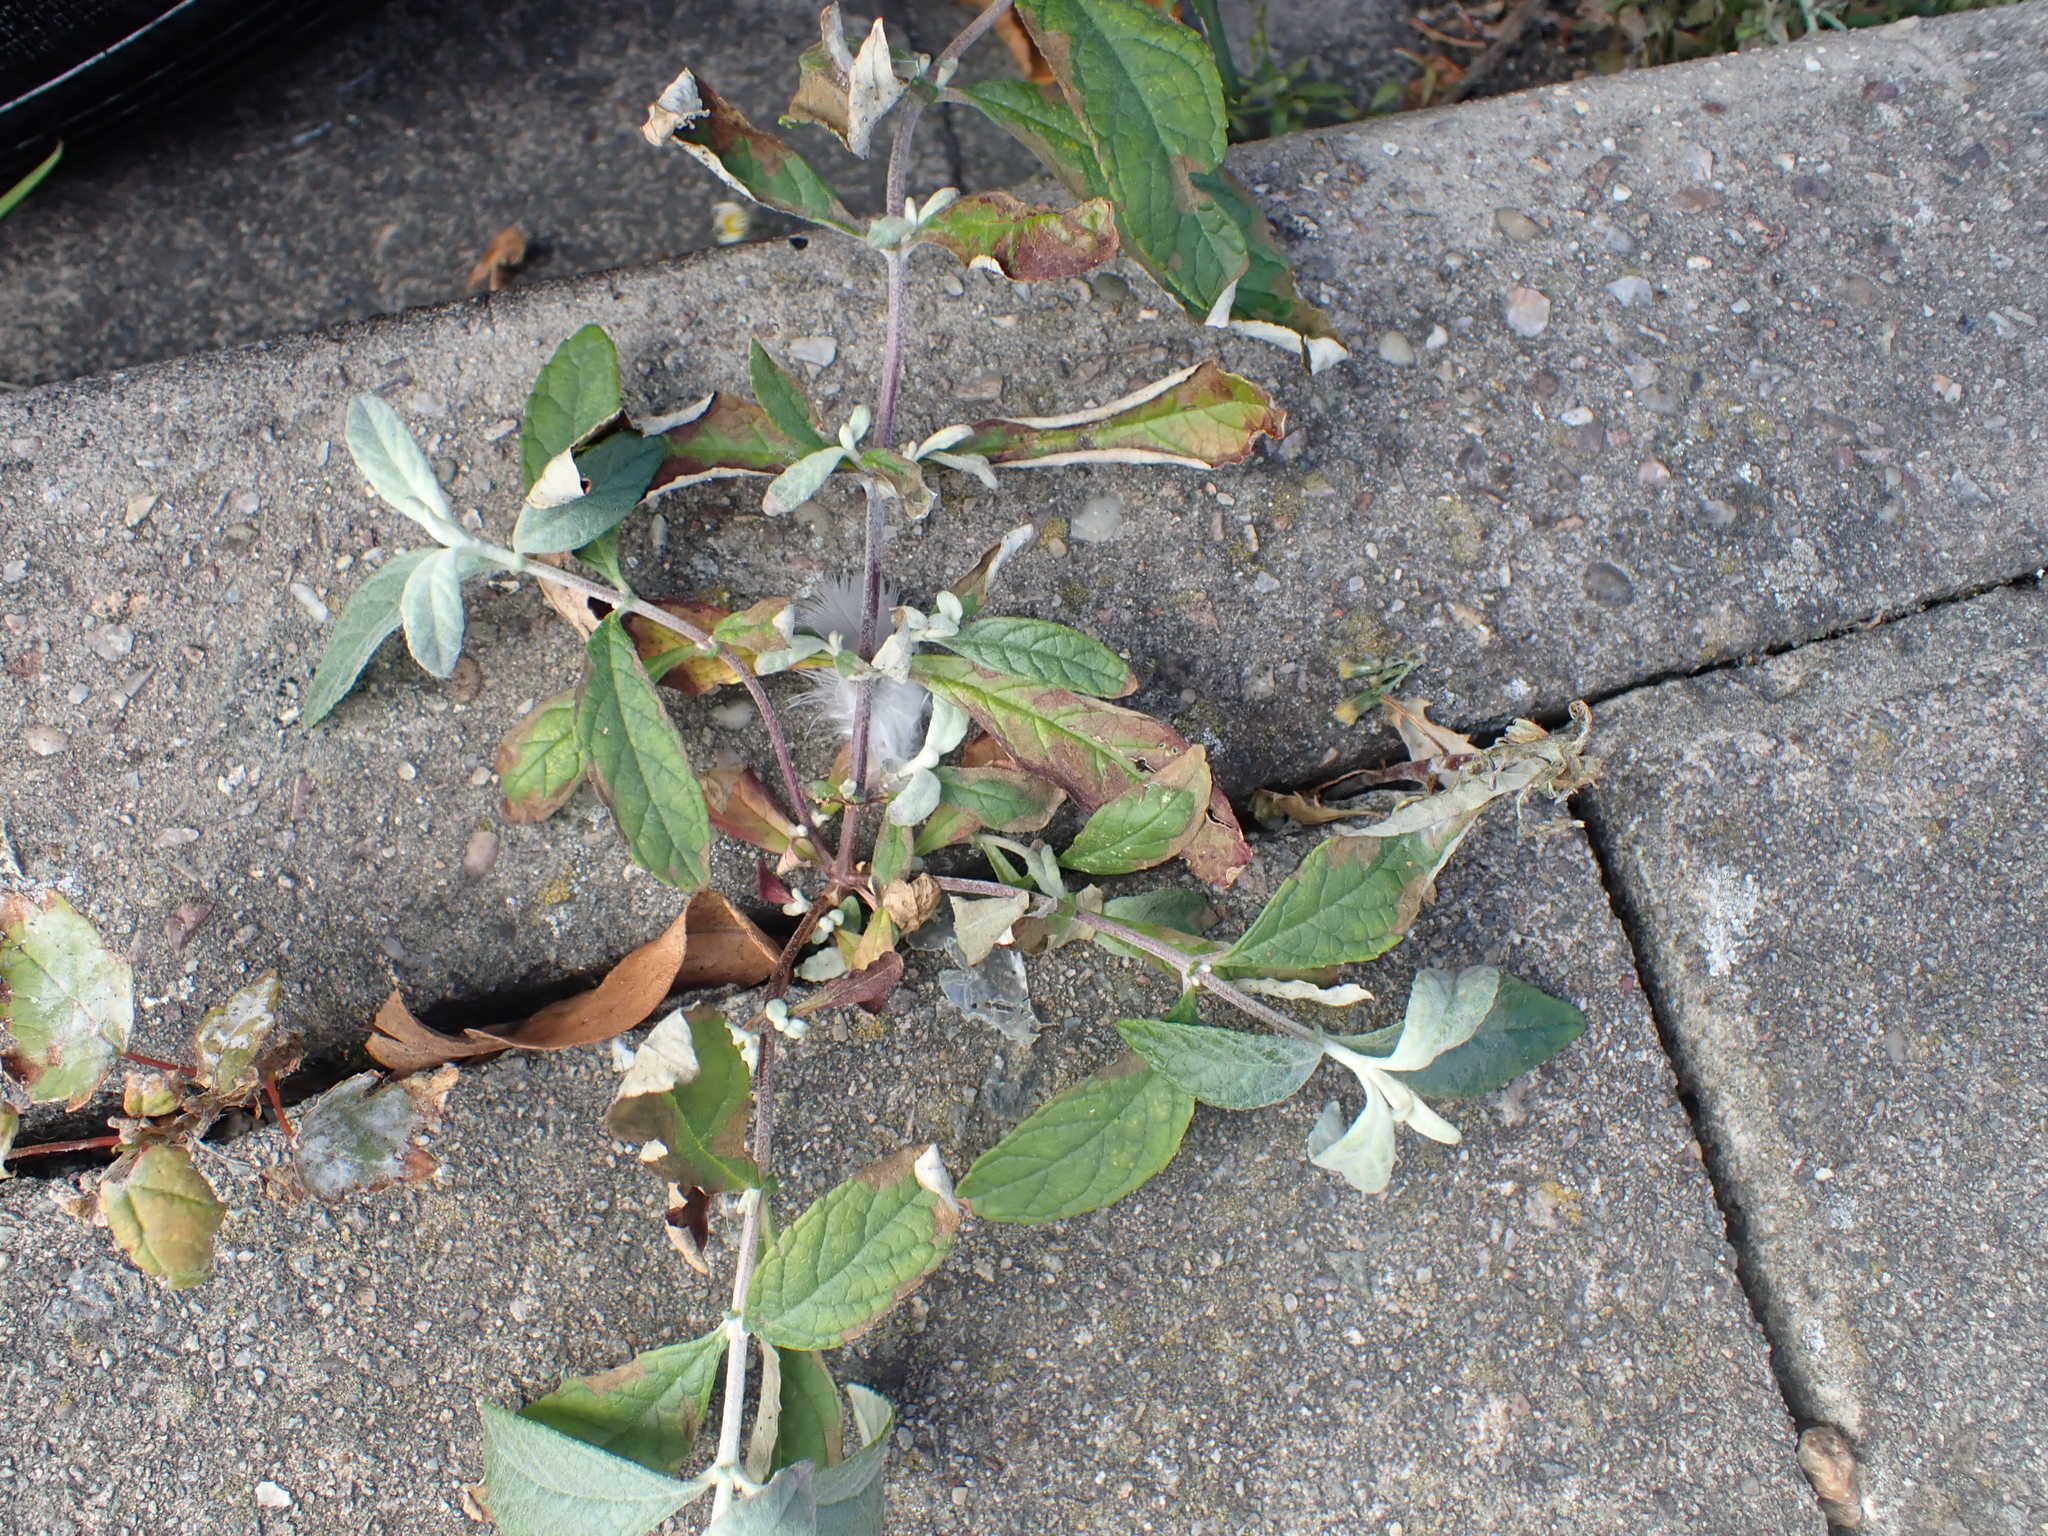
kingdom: Plantae
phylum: Tracheophyta
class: Magnoliopsida
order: Lamiales
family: Scrophulariaceae
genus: Buddleja
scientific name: Buddleja davidii
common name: Butterfly-bush
